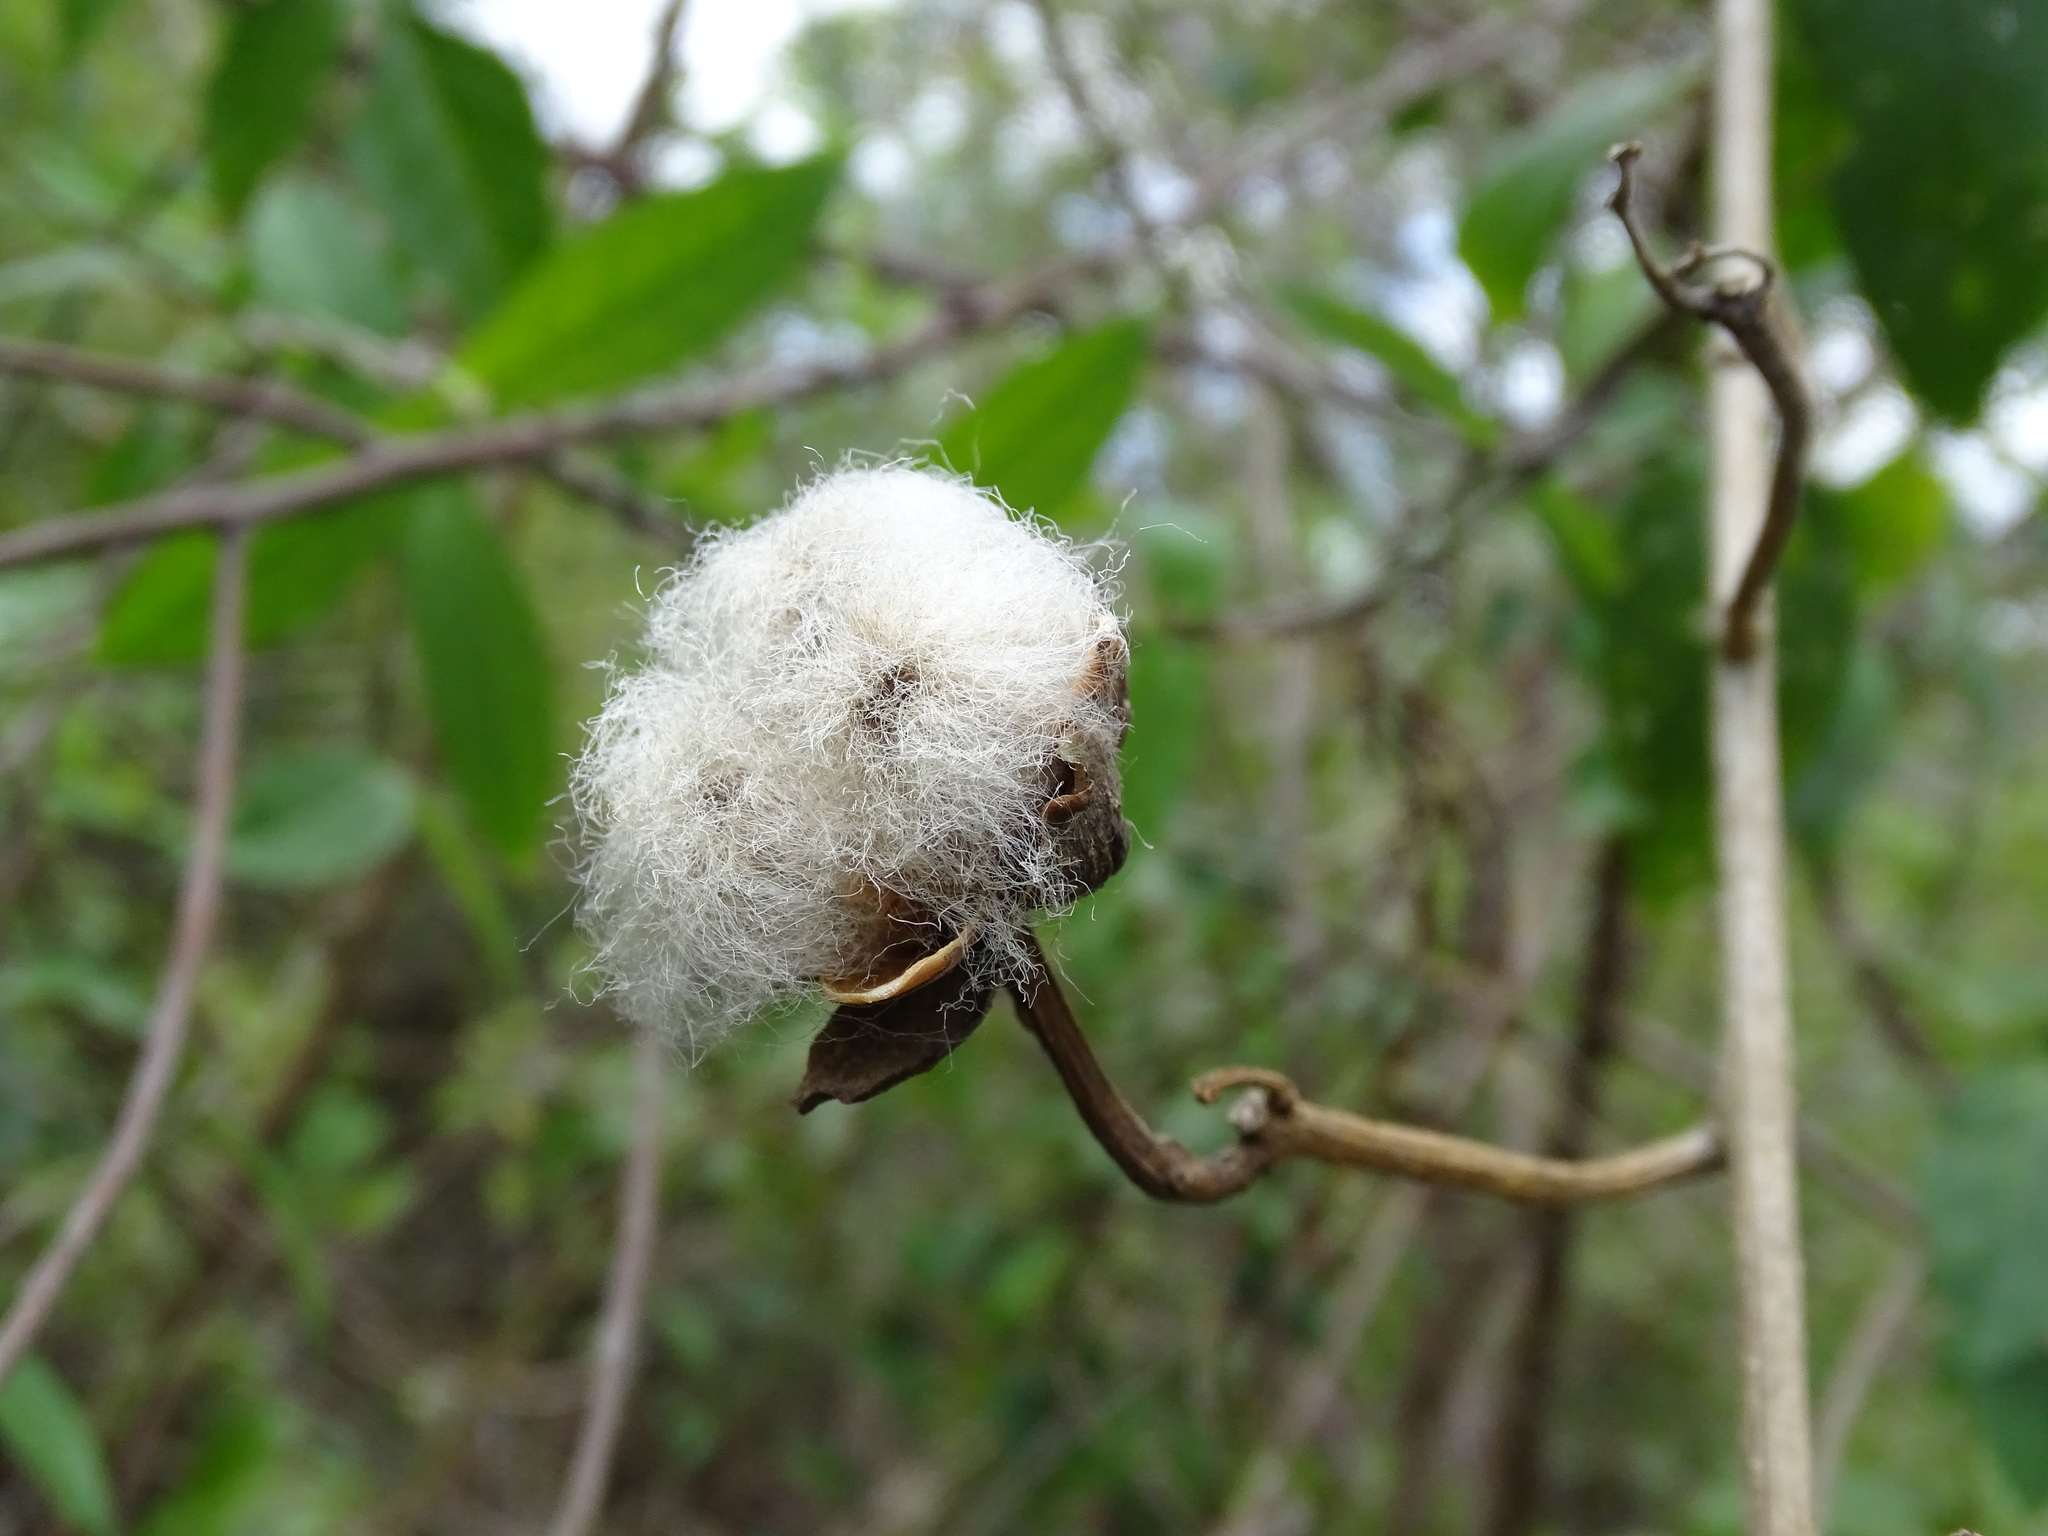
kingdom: Plantae
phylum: Tracheophyta
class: Magnoliopsida
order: Solanales
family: Convolvulaceae
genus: Ipomoea
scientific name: Ipomoea carnea
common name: Morning-glory
